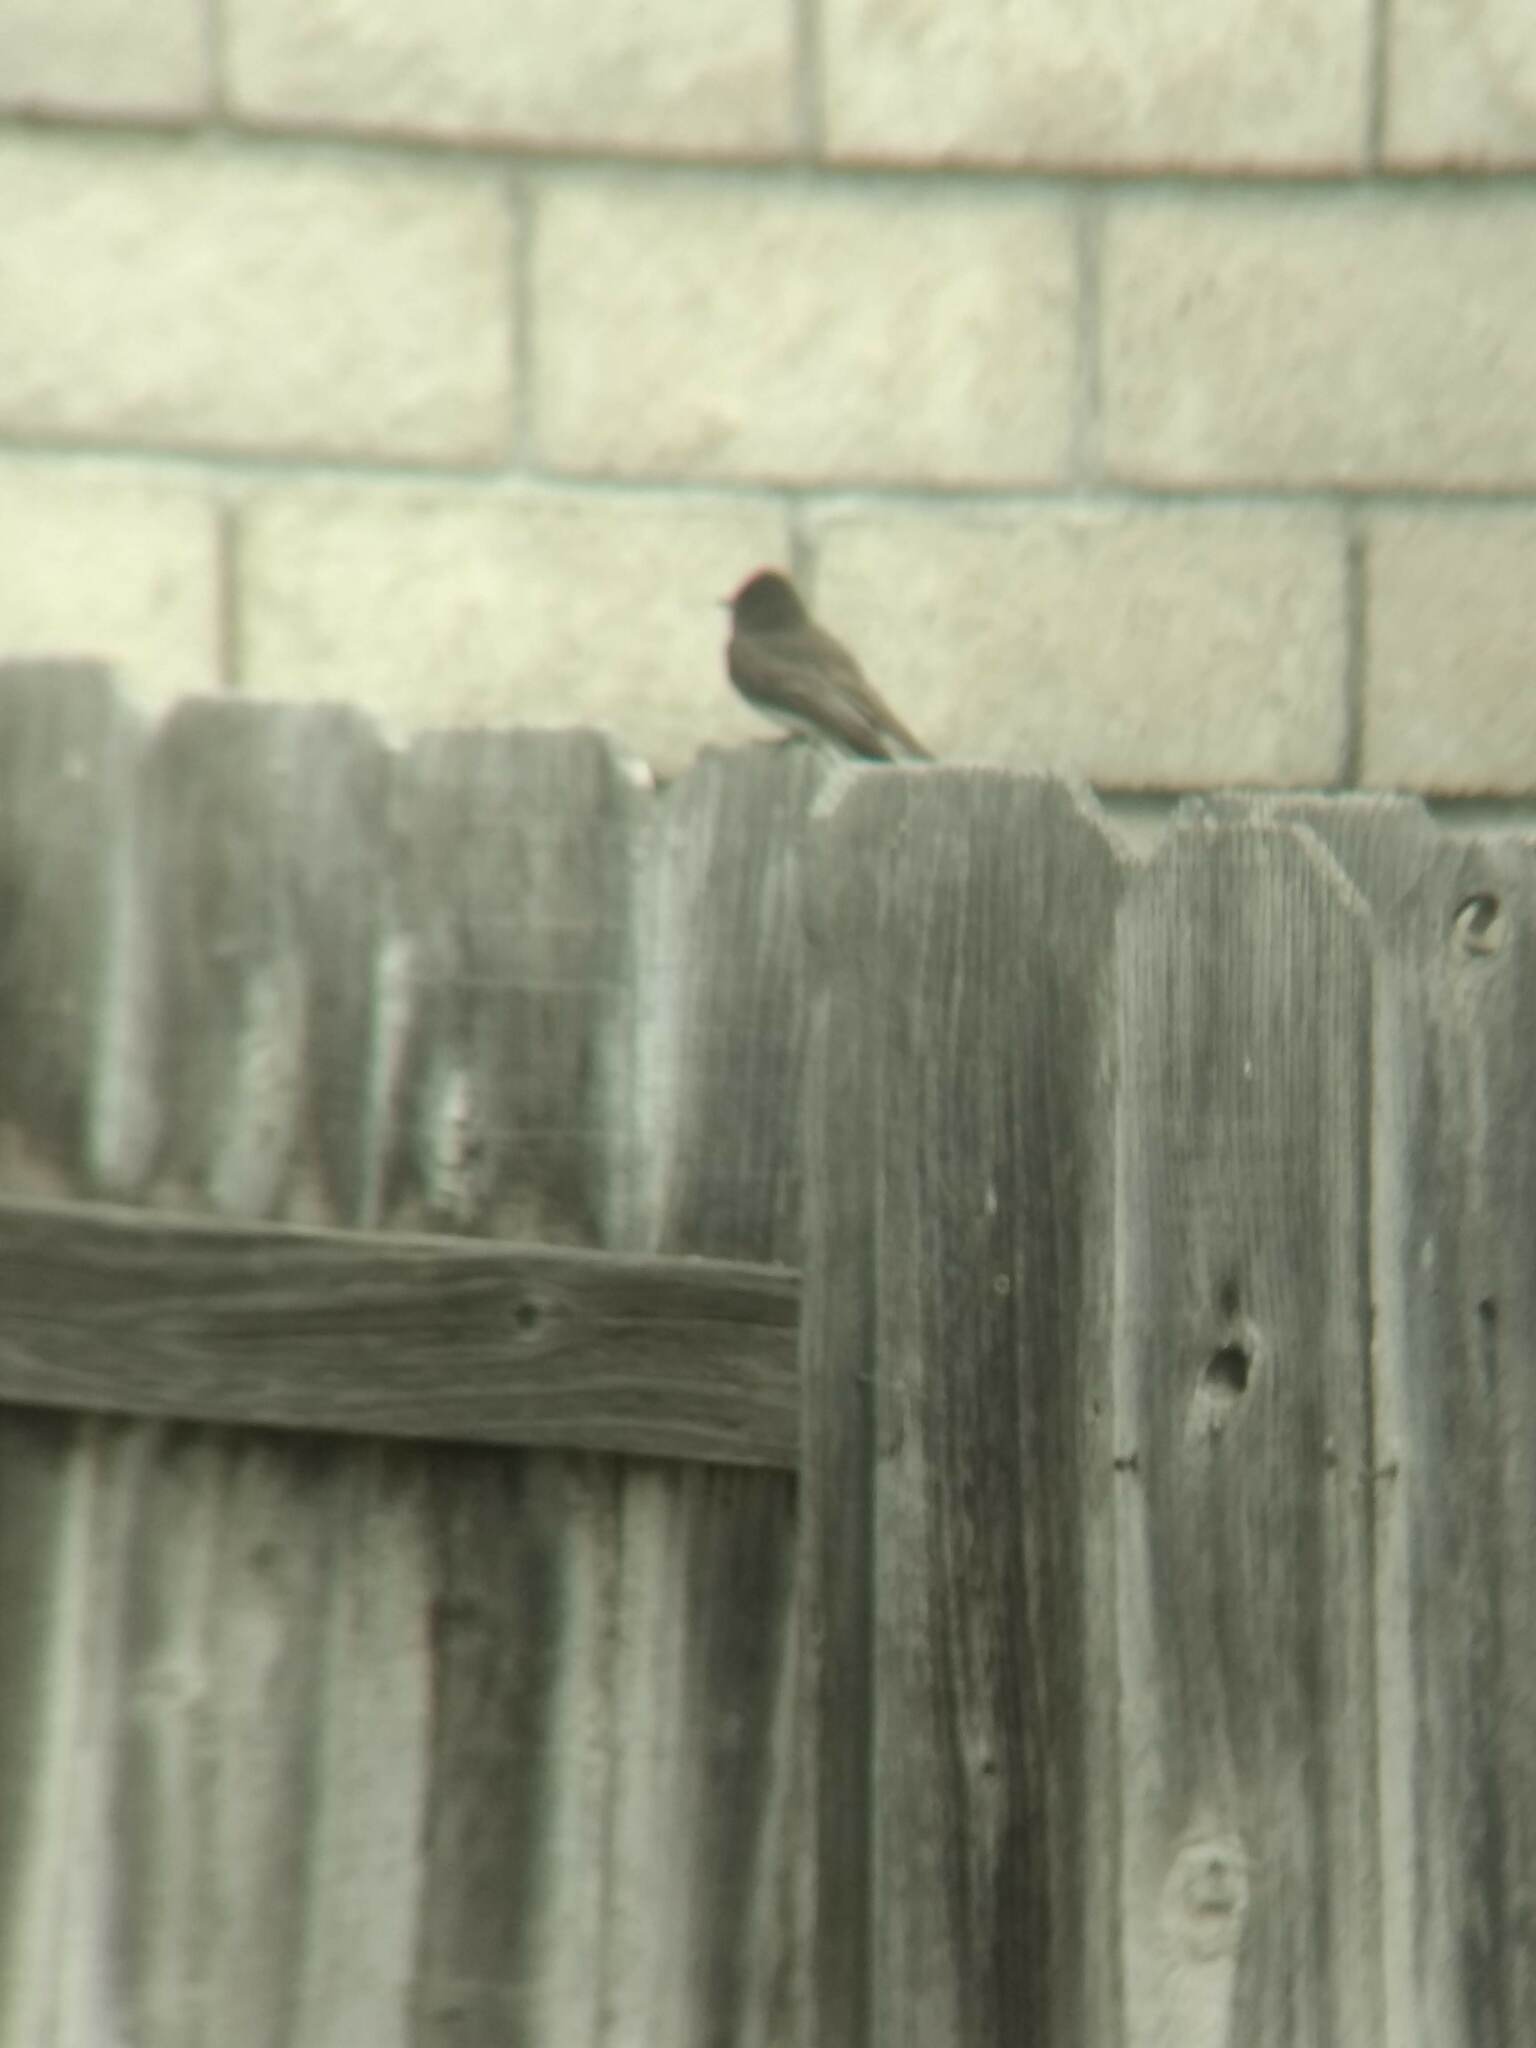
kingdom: Animalia
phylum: Chordata
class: Aves
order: Passeriformes
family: Tyrannidae
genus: Sayornis
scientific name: Sayornis nigricans
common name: Black phoebe
